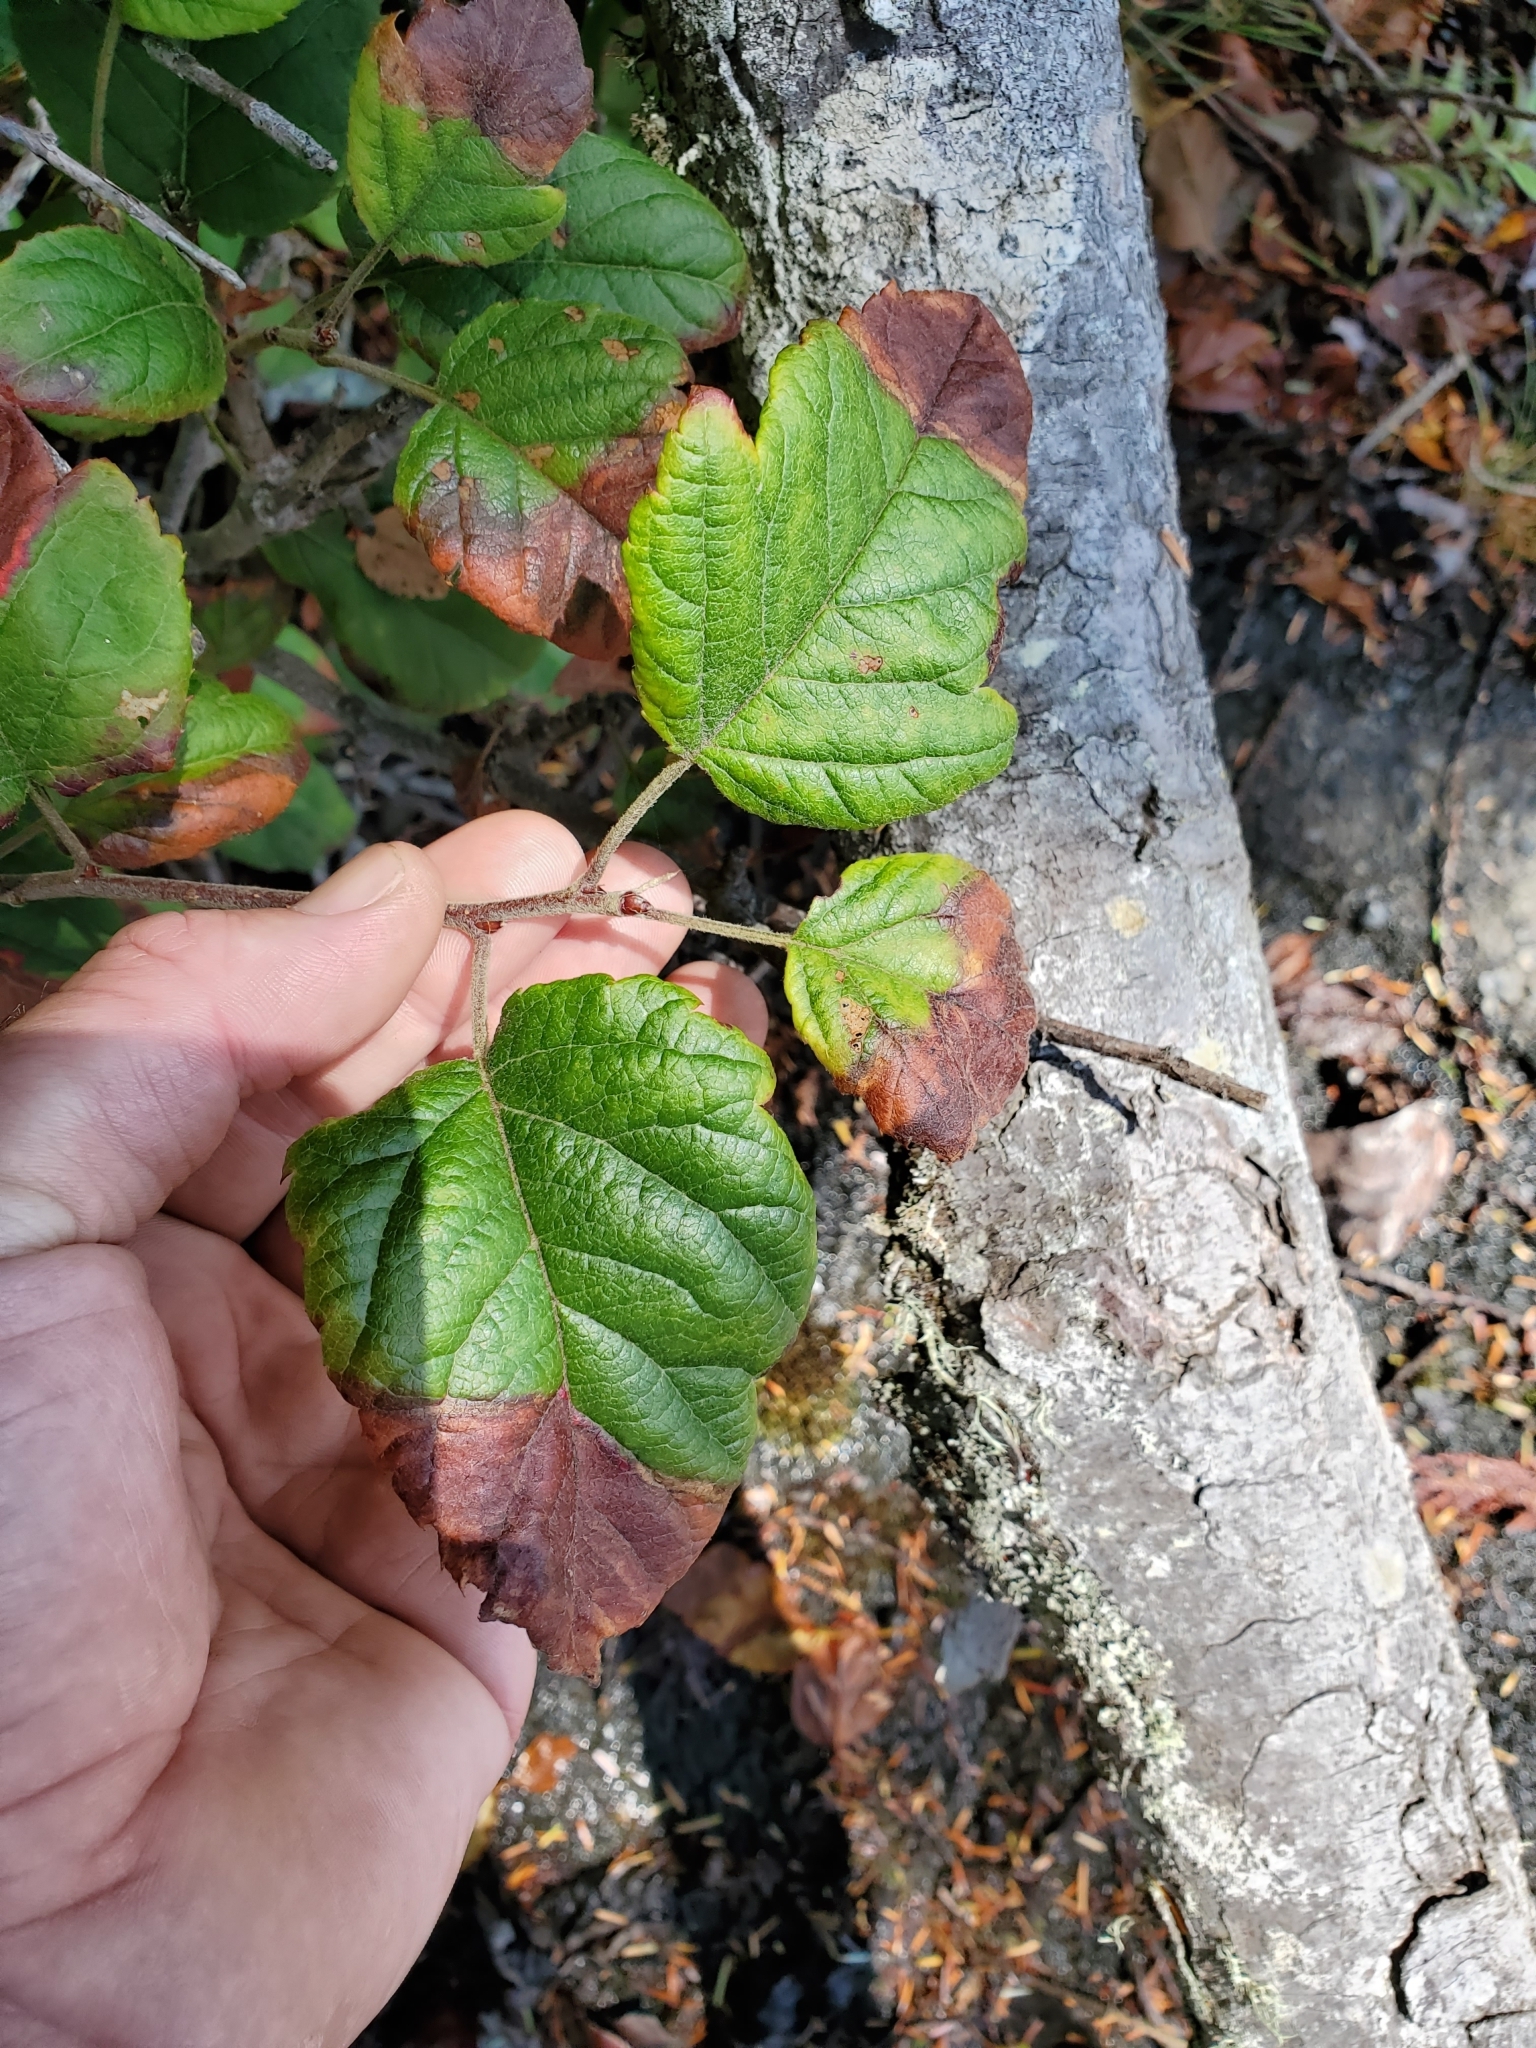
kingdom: Plantae
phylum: Tracheophyta
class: Magnoliopsida
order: Rosales
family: Rosaceae
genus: Malus
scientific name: Malus fusca
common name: Oregon crab apple
